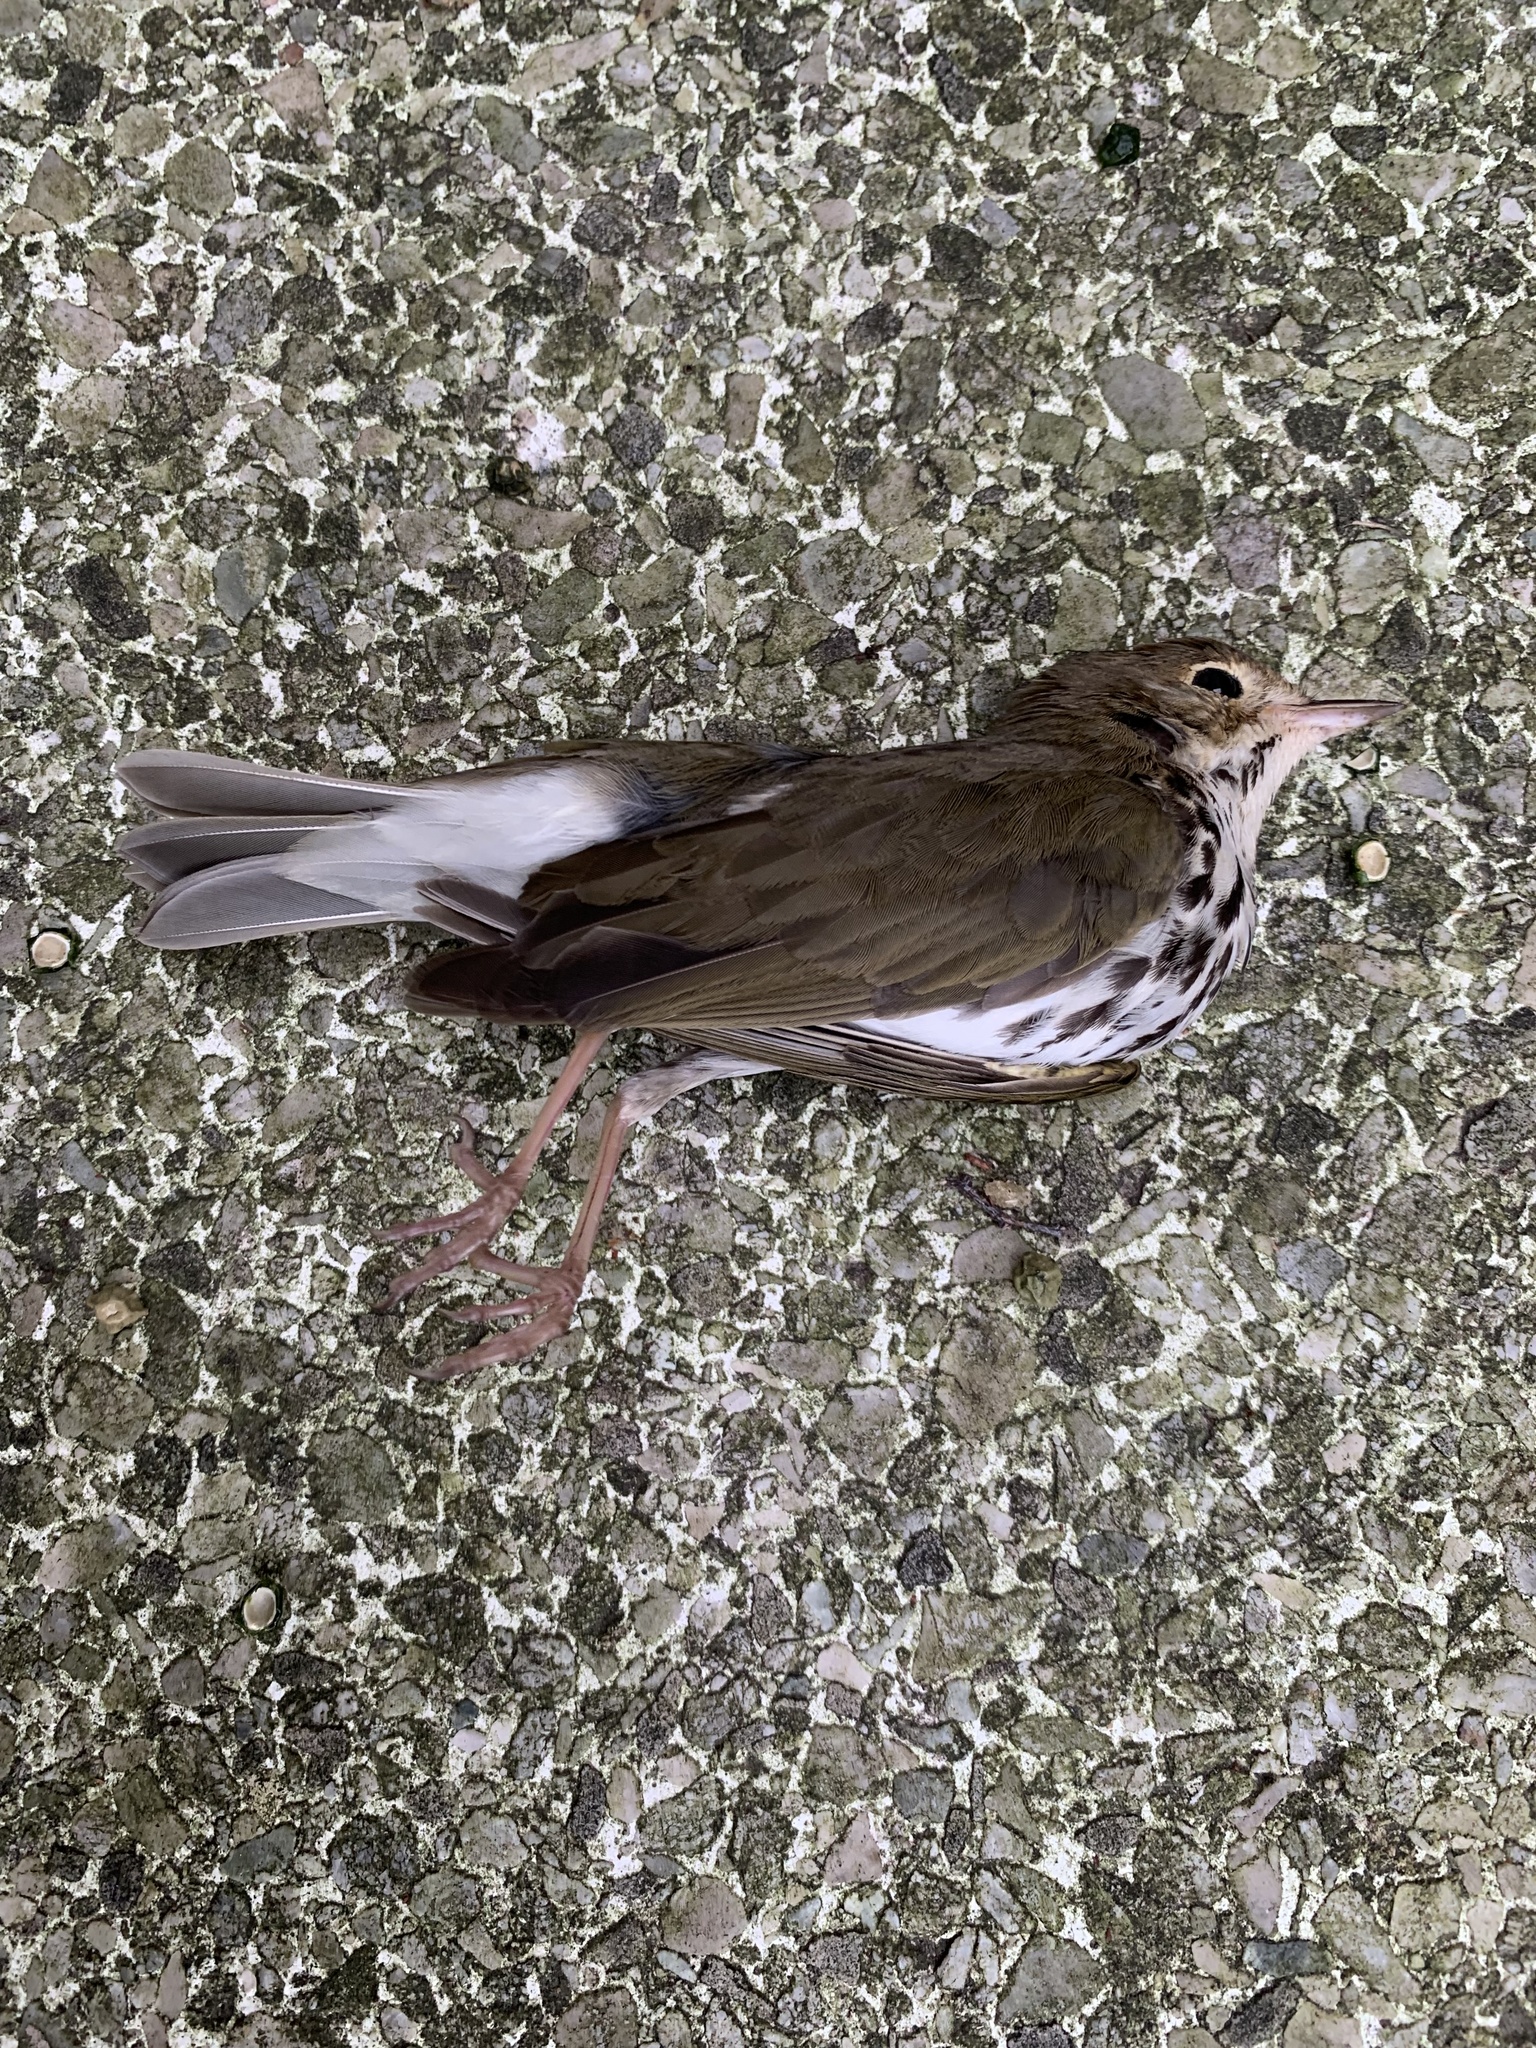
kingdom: Animalia
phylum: Chordata
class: Aves
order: Passeriformes
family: Parulidae
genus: Seiurus
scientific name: Seiurus aurocapilla
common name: Ovenbird
